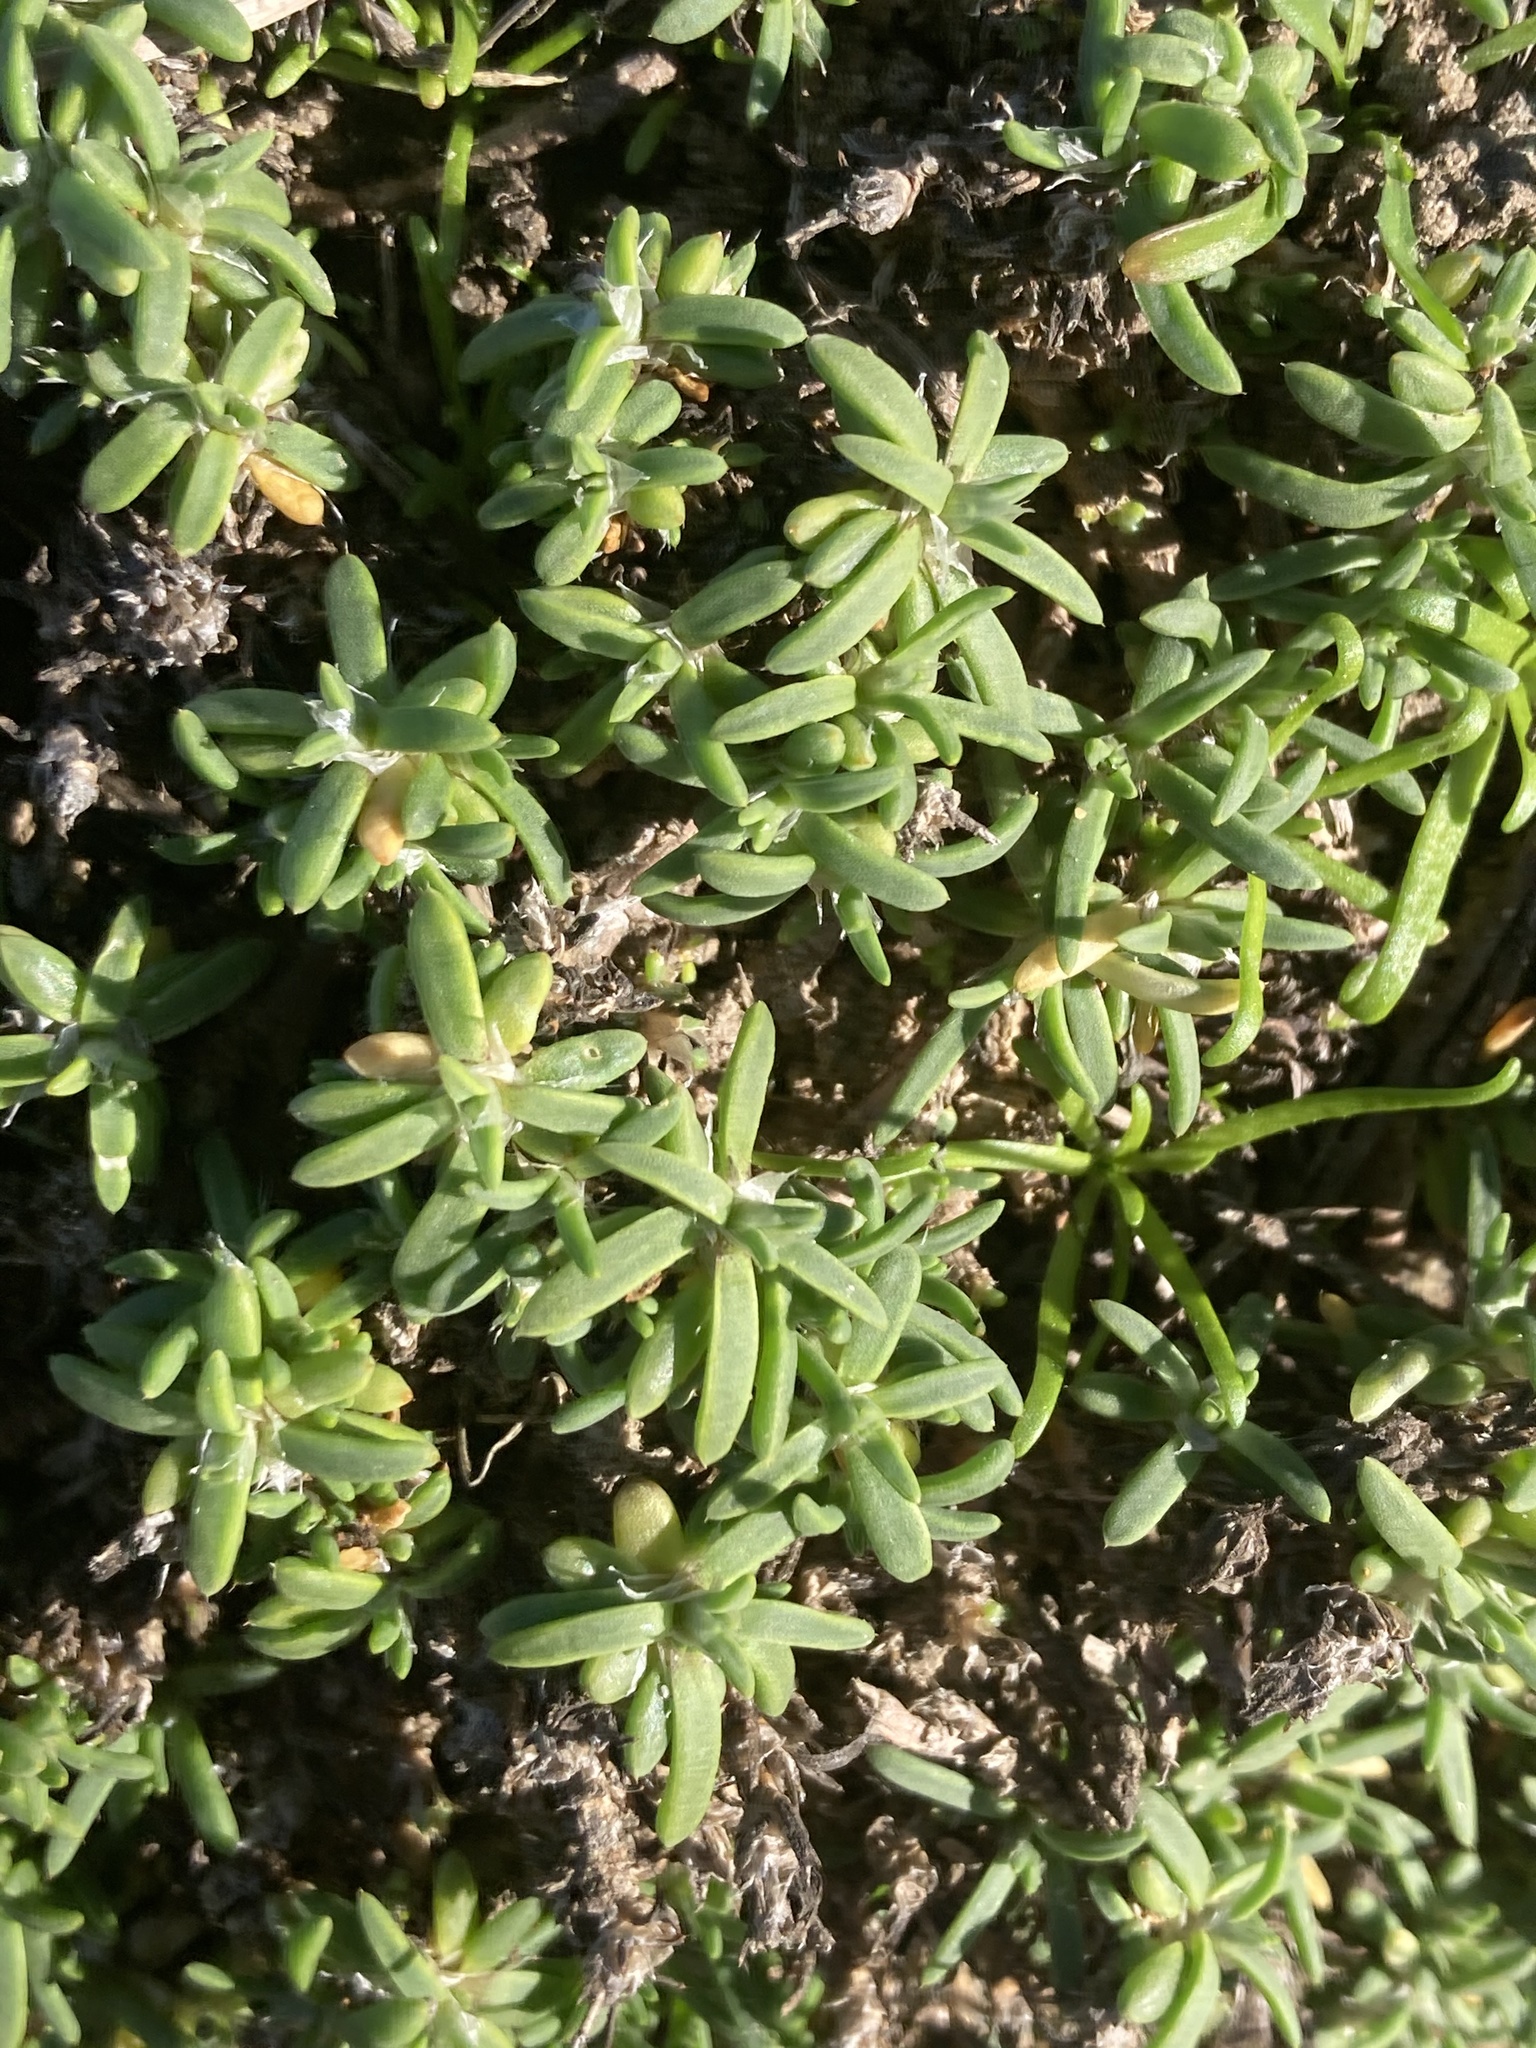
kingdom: Plantae
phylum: Tracheophyta
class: Magnoliopsida
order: Asterales
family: Asteraceae
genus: Jaumea
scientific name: Jaumea carnosa
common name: Fleshy jaumea
